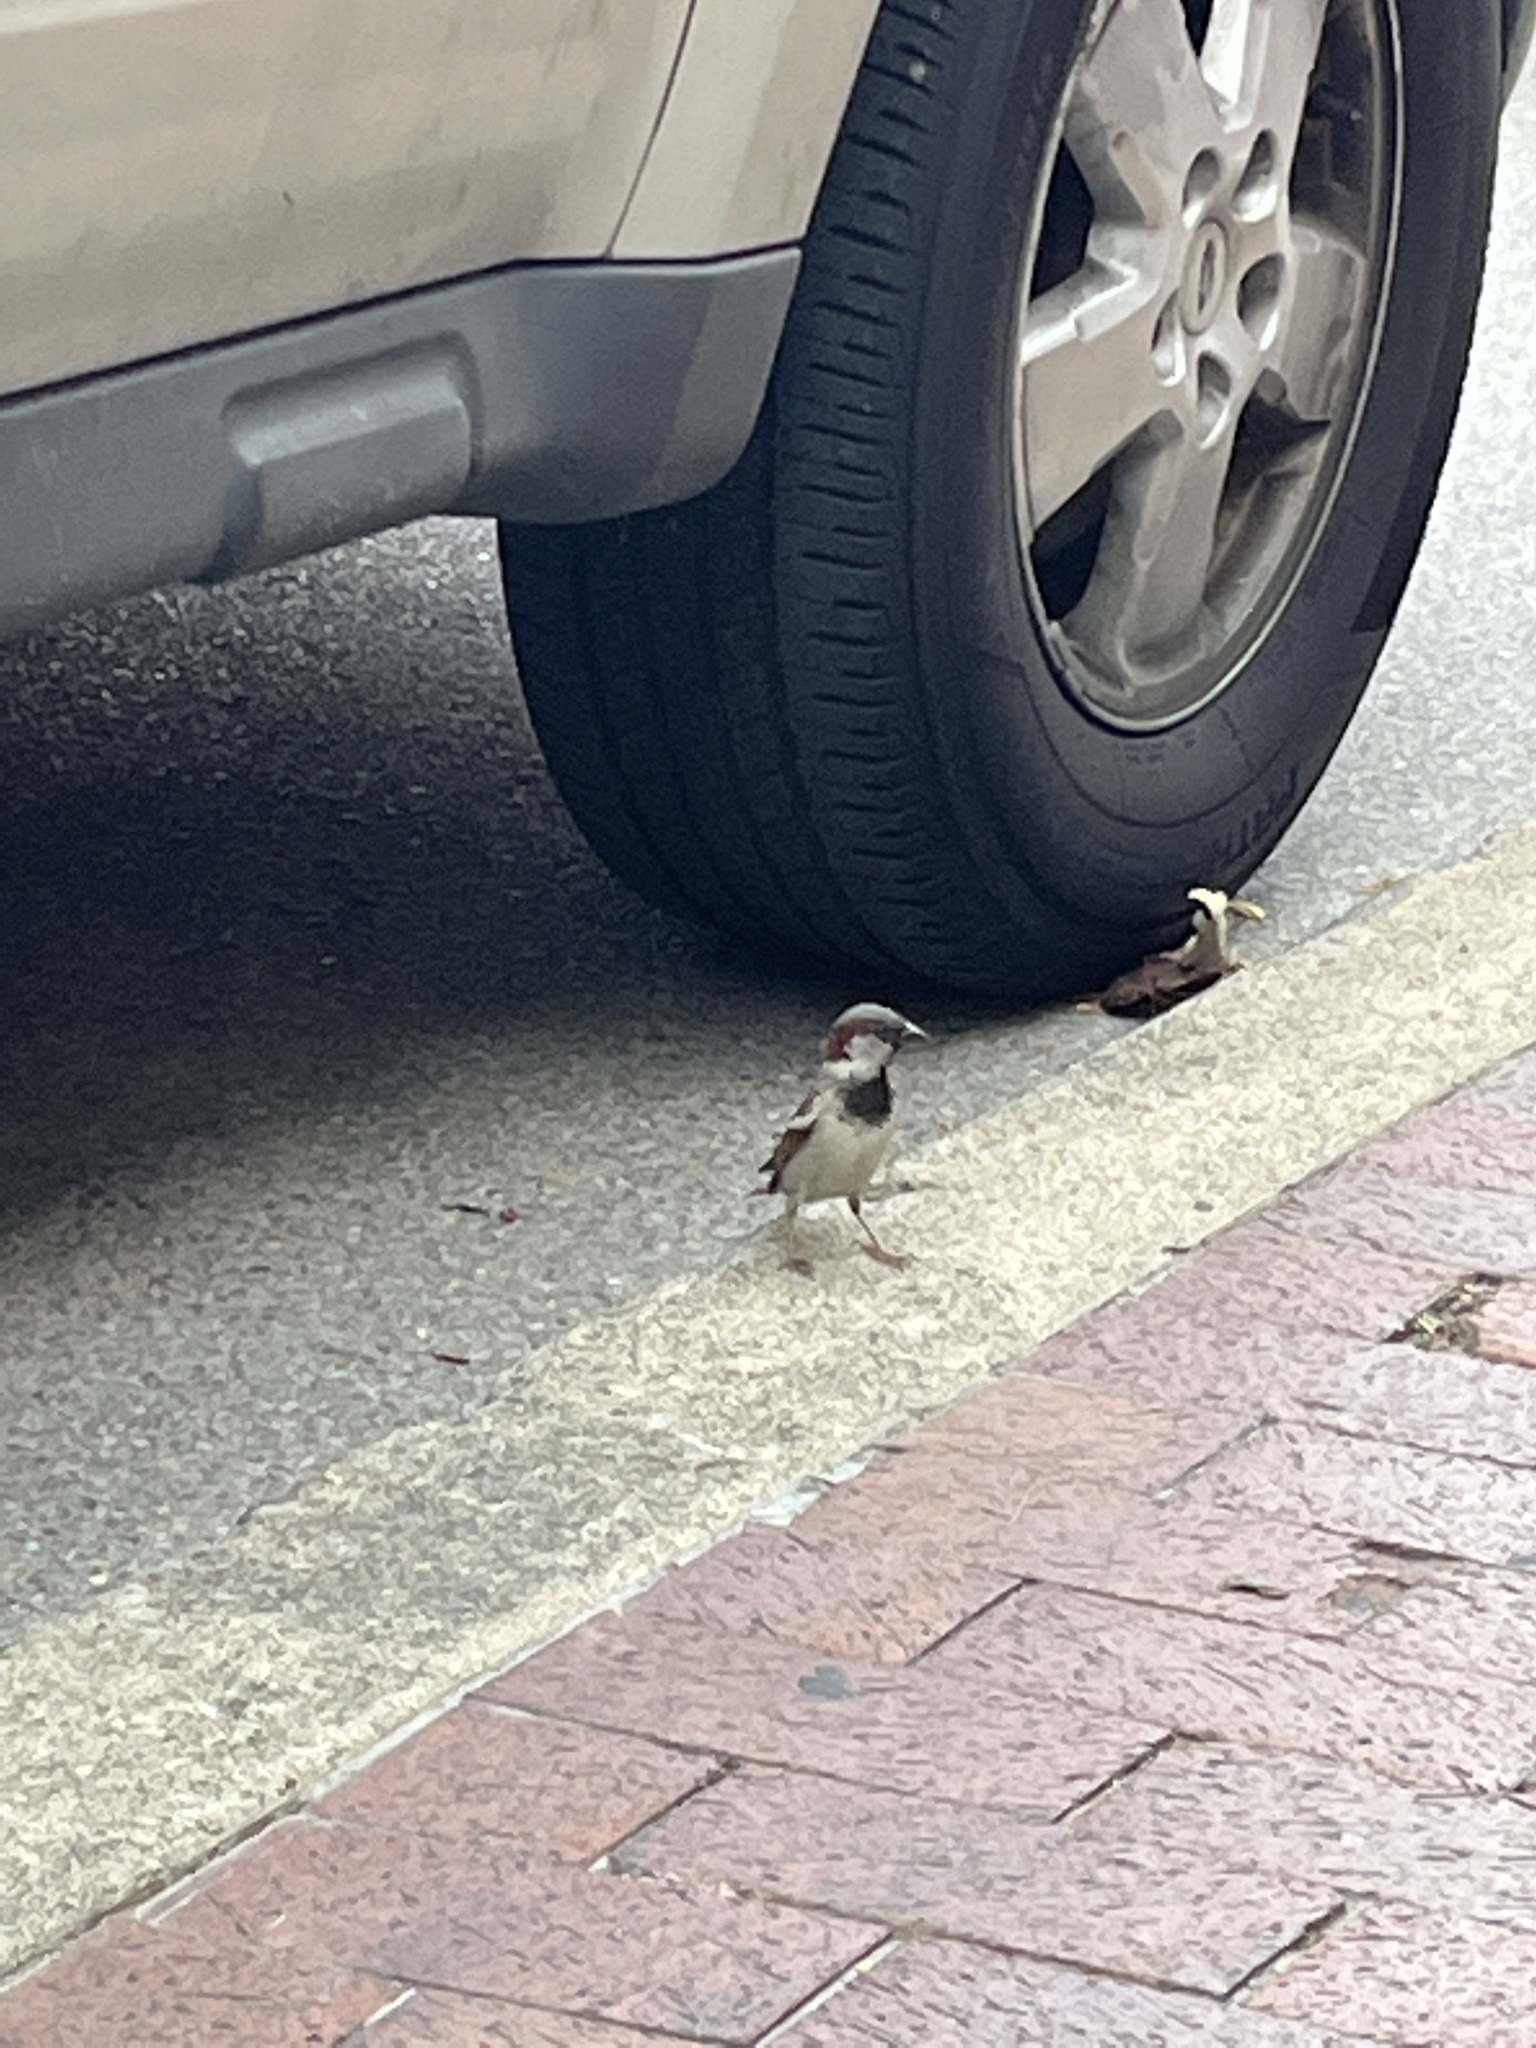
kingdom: Animalia
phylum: Chordata
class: Aves
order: Passeriformes
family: Passeridae
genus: Passer
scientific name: Passer domesticus
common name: House sparrow
